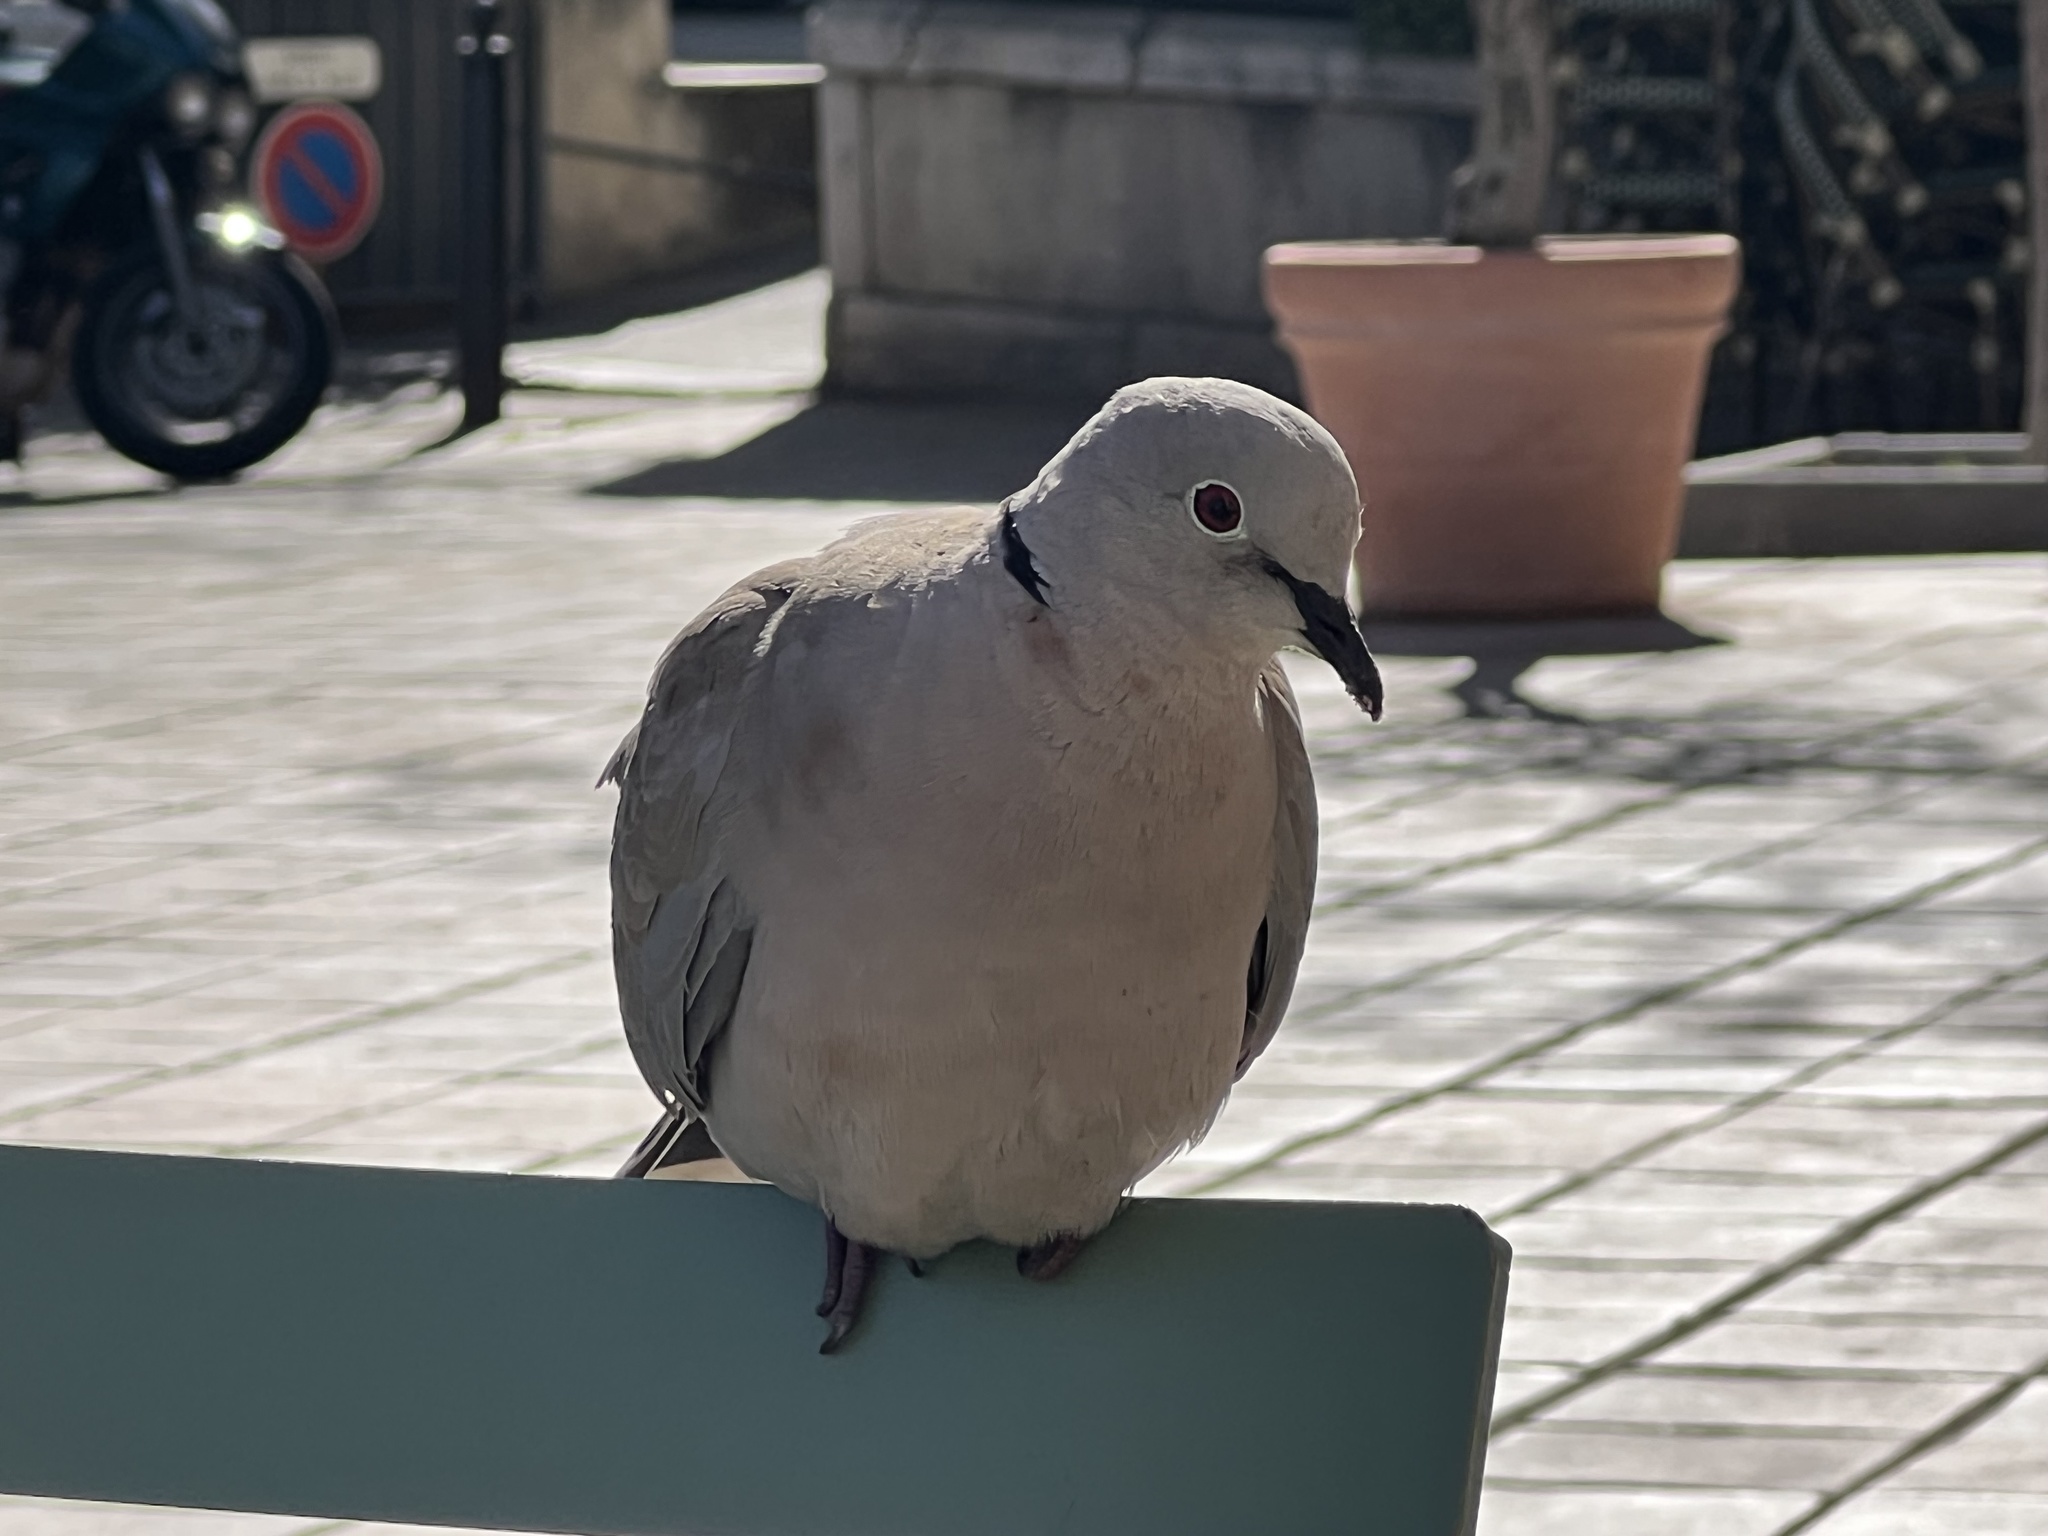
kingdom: Animalia
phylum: Chordata
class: Aves
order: Columbiformes
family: Columbidae
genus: Streptopelia
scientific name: Streptopelia decaocto
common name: Eurasian collared dove
